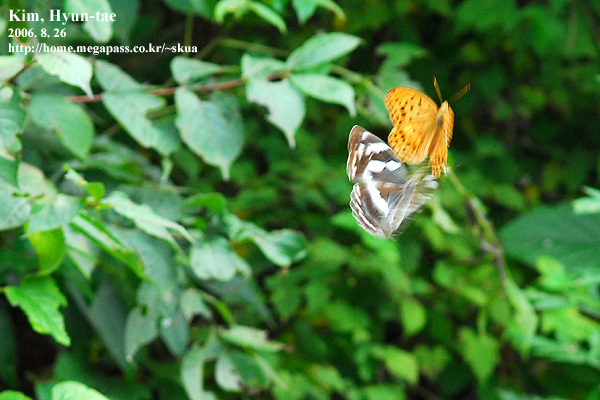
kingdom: Animalia
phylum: Arthropoda
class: Insecta
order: Lepidoptera
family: Nymphalidae
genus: Damora
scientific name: Damora sagana
